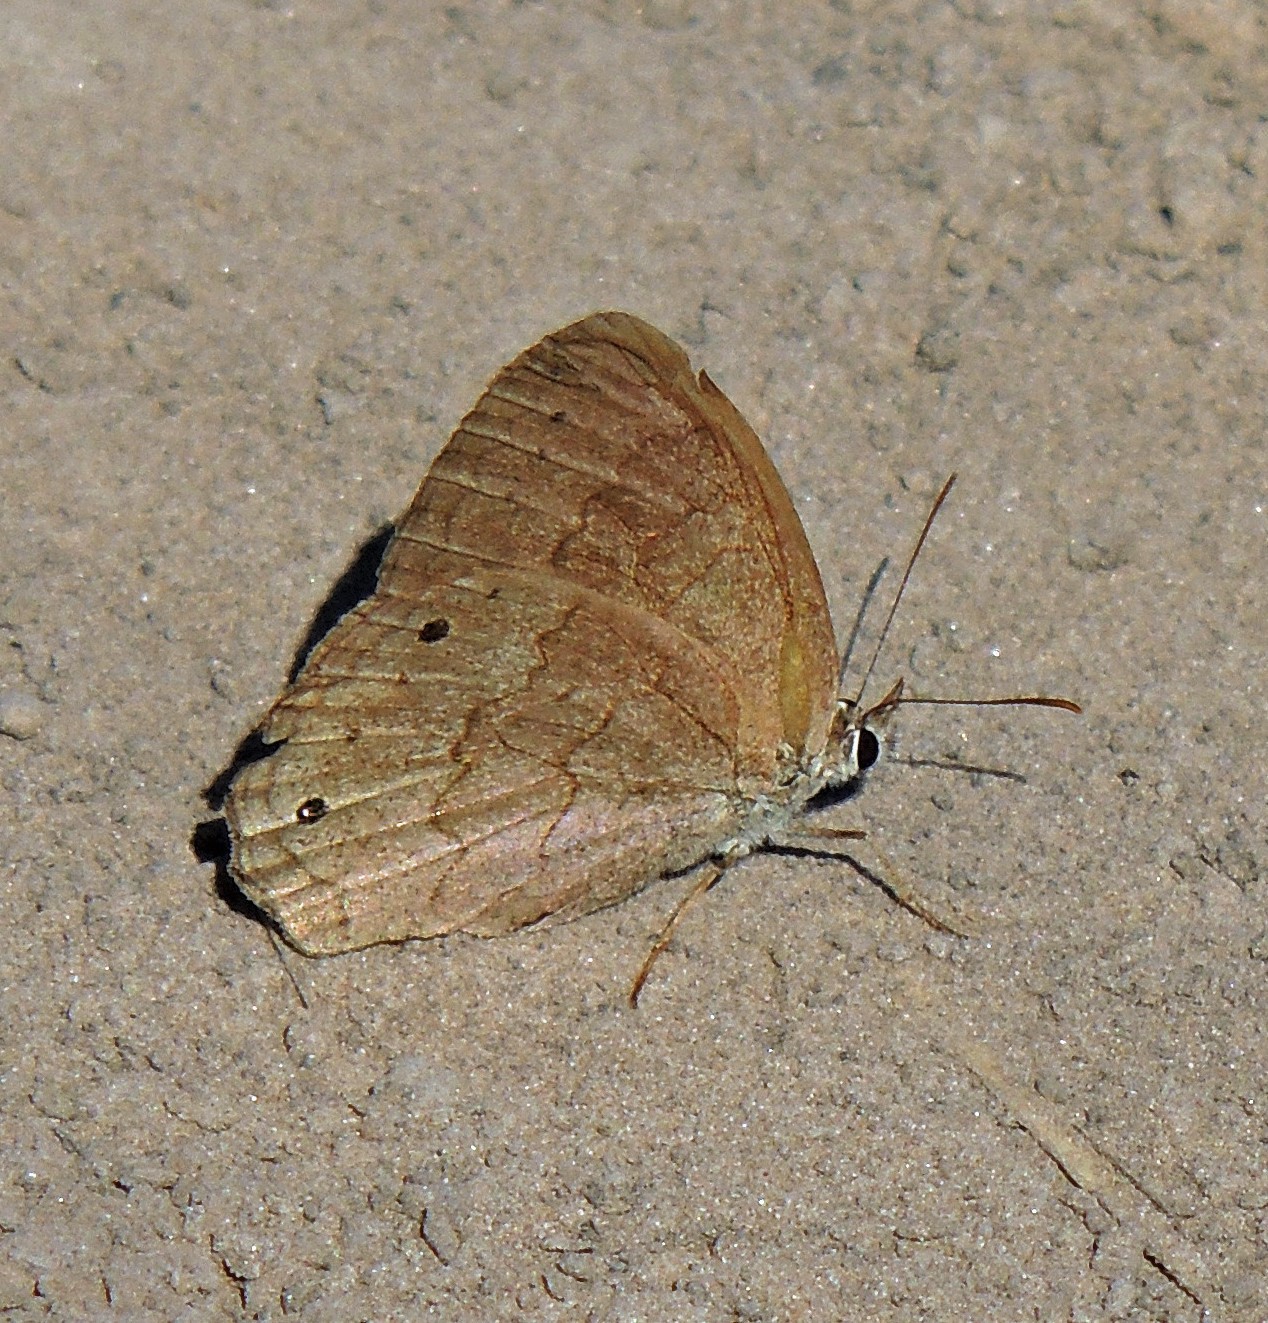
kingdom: Animalia
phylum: Arthropoda
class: Insecta
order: Lepidoptera
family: Nymphalidae
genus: Euptychia
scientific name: Euptychia Cissia eous
